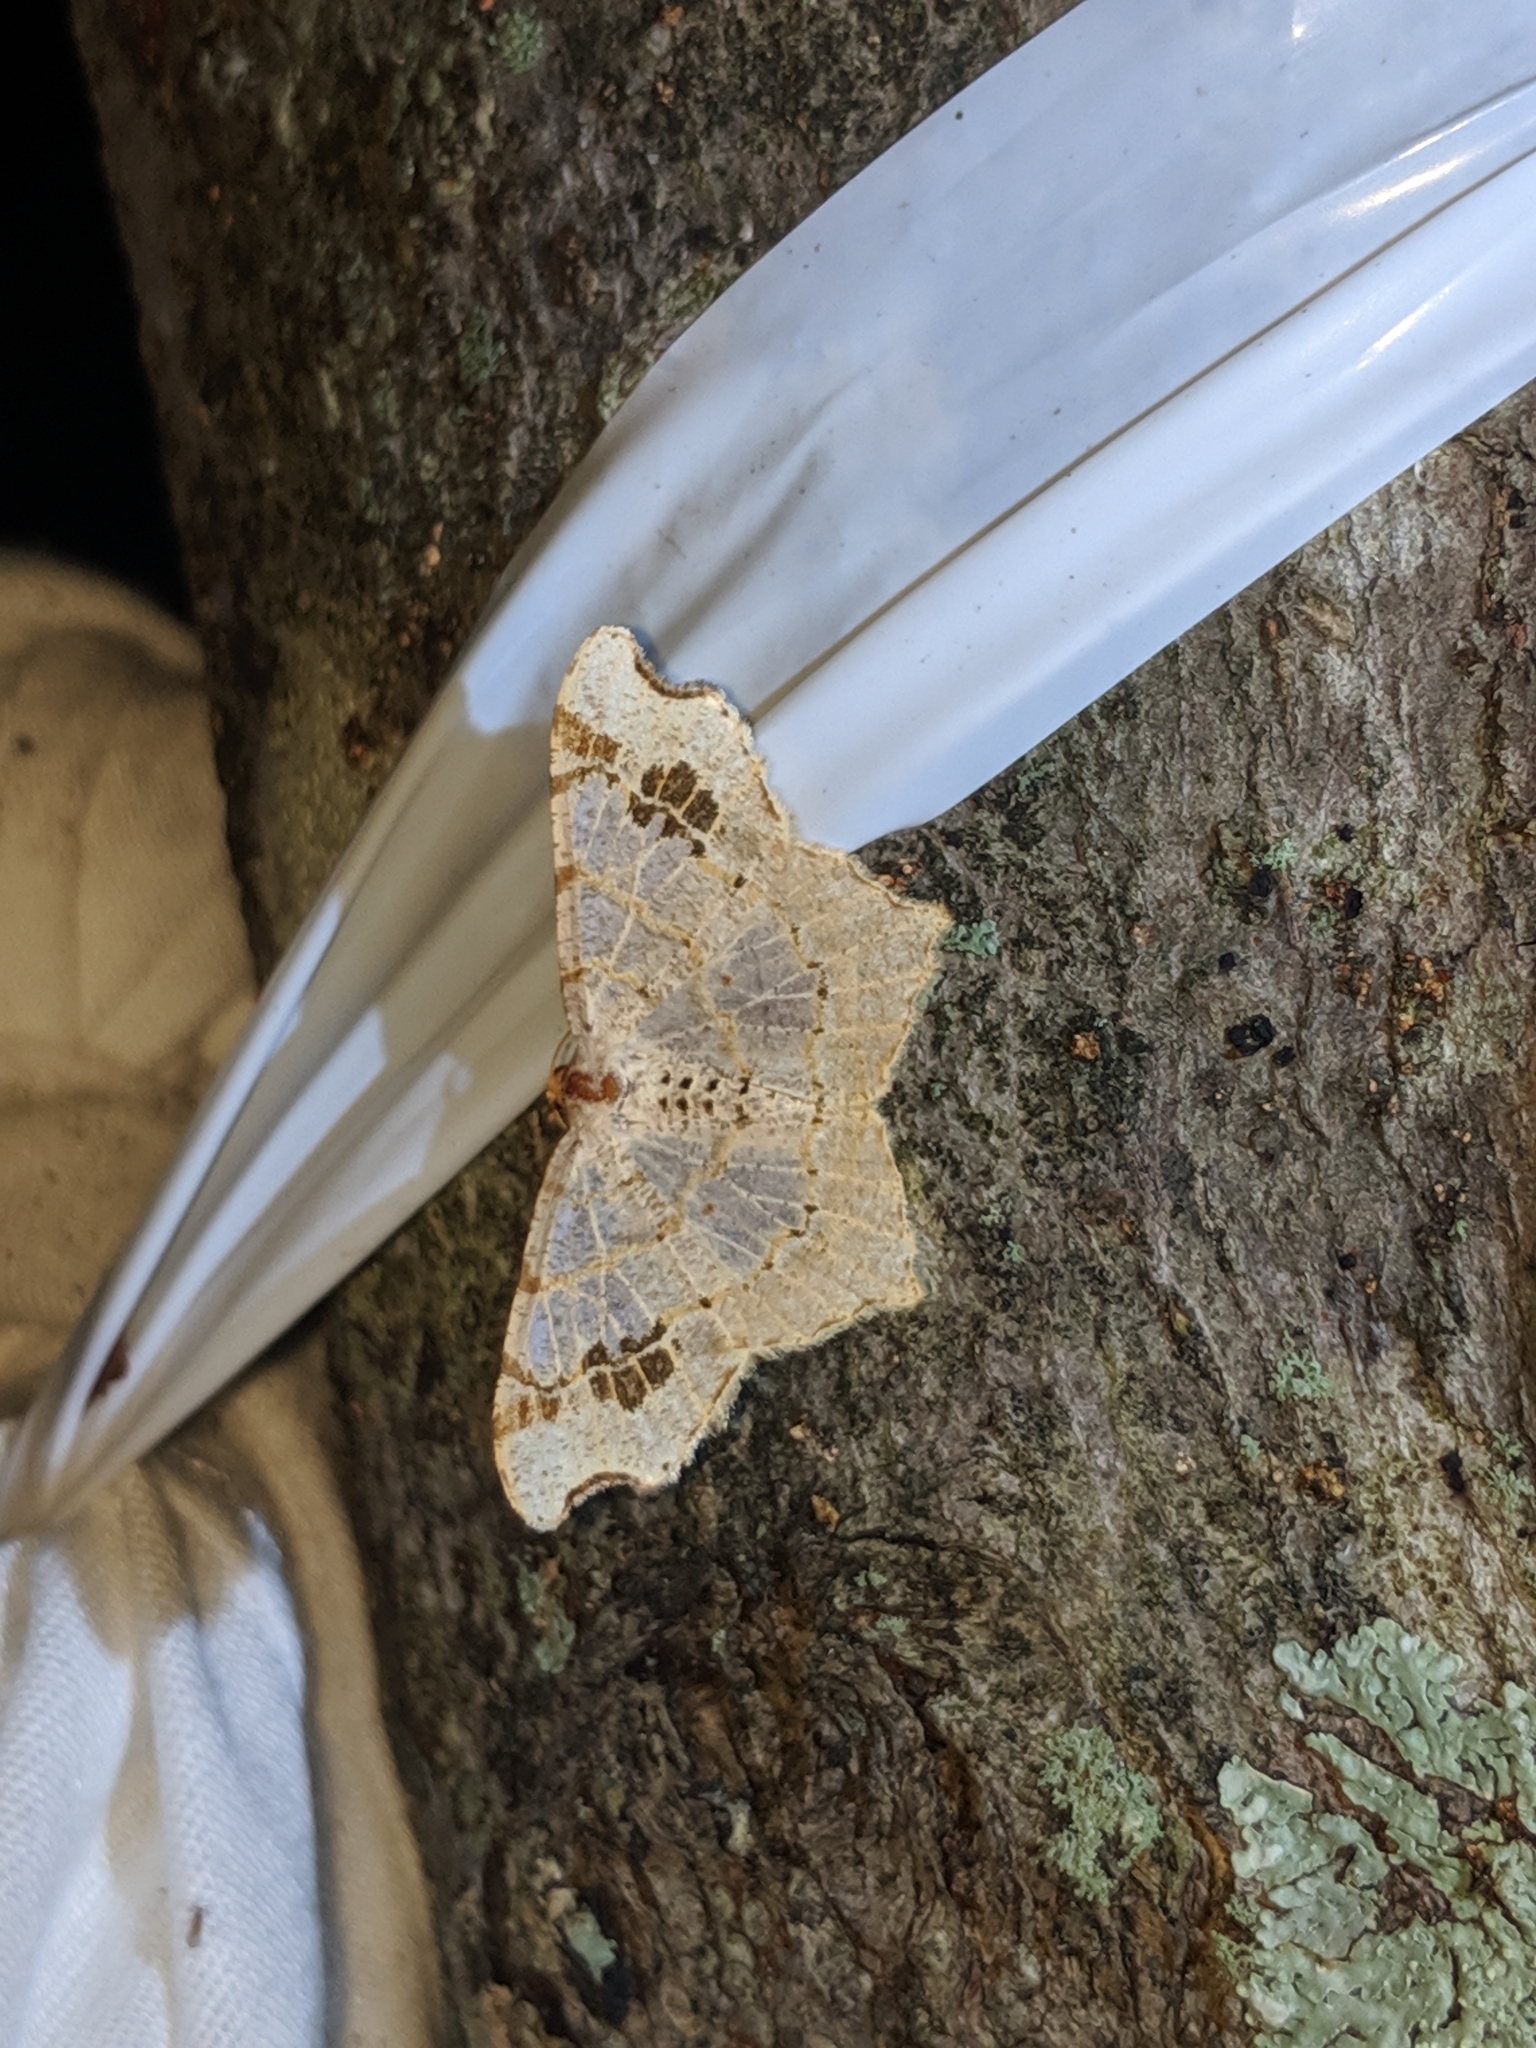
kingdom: Animalia
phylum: Arthropoda
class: Insecta
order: Lepidoptera
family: Geometridae
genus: Macaria
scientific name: Macaria aemulataria
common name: Common angle
